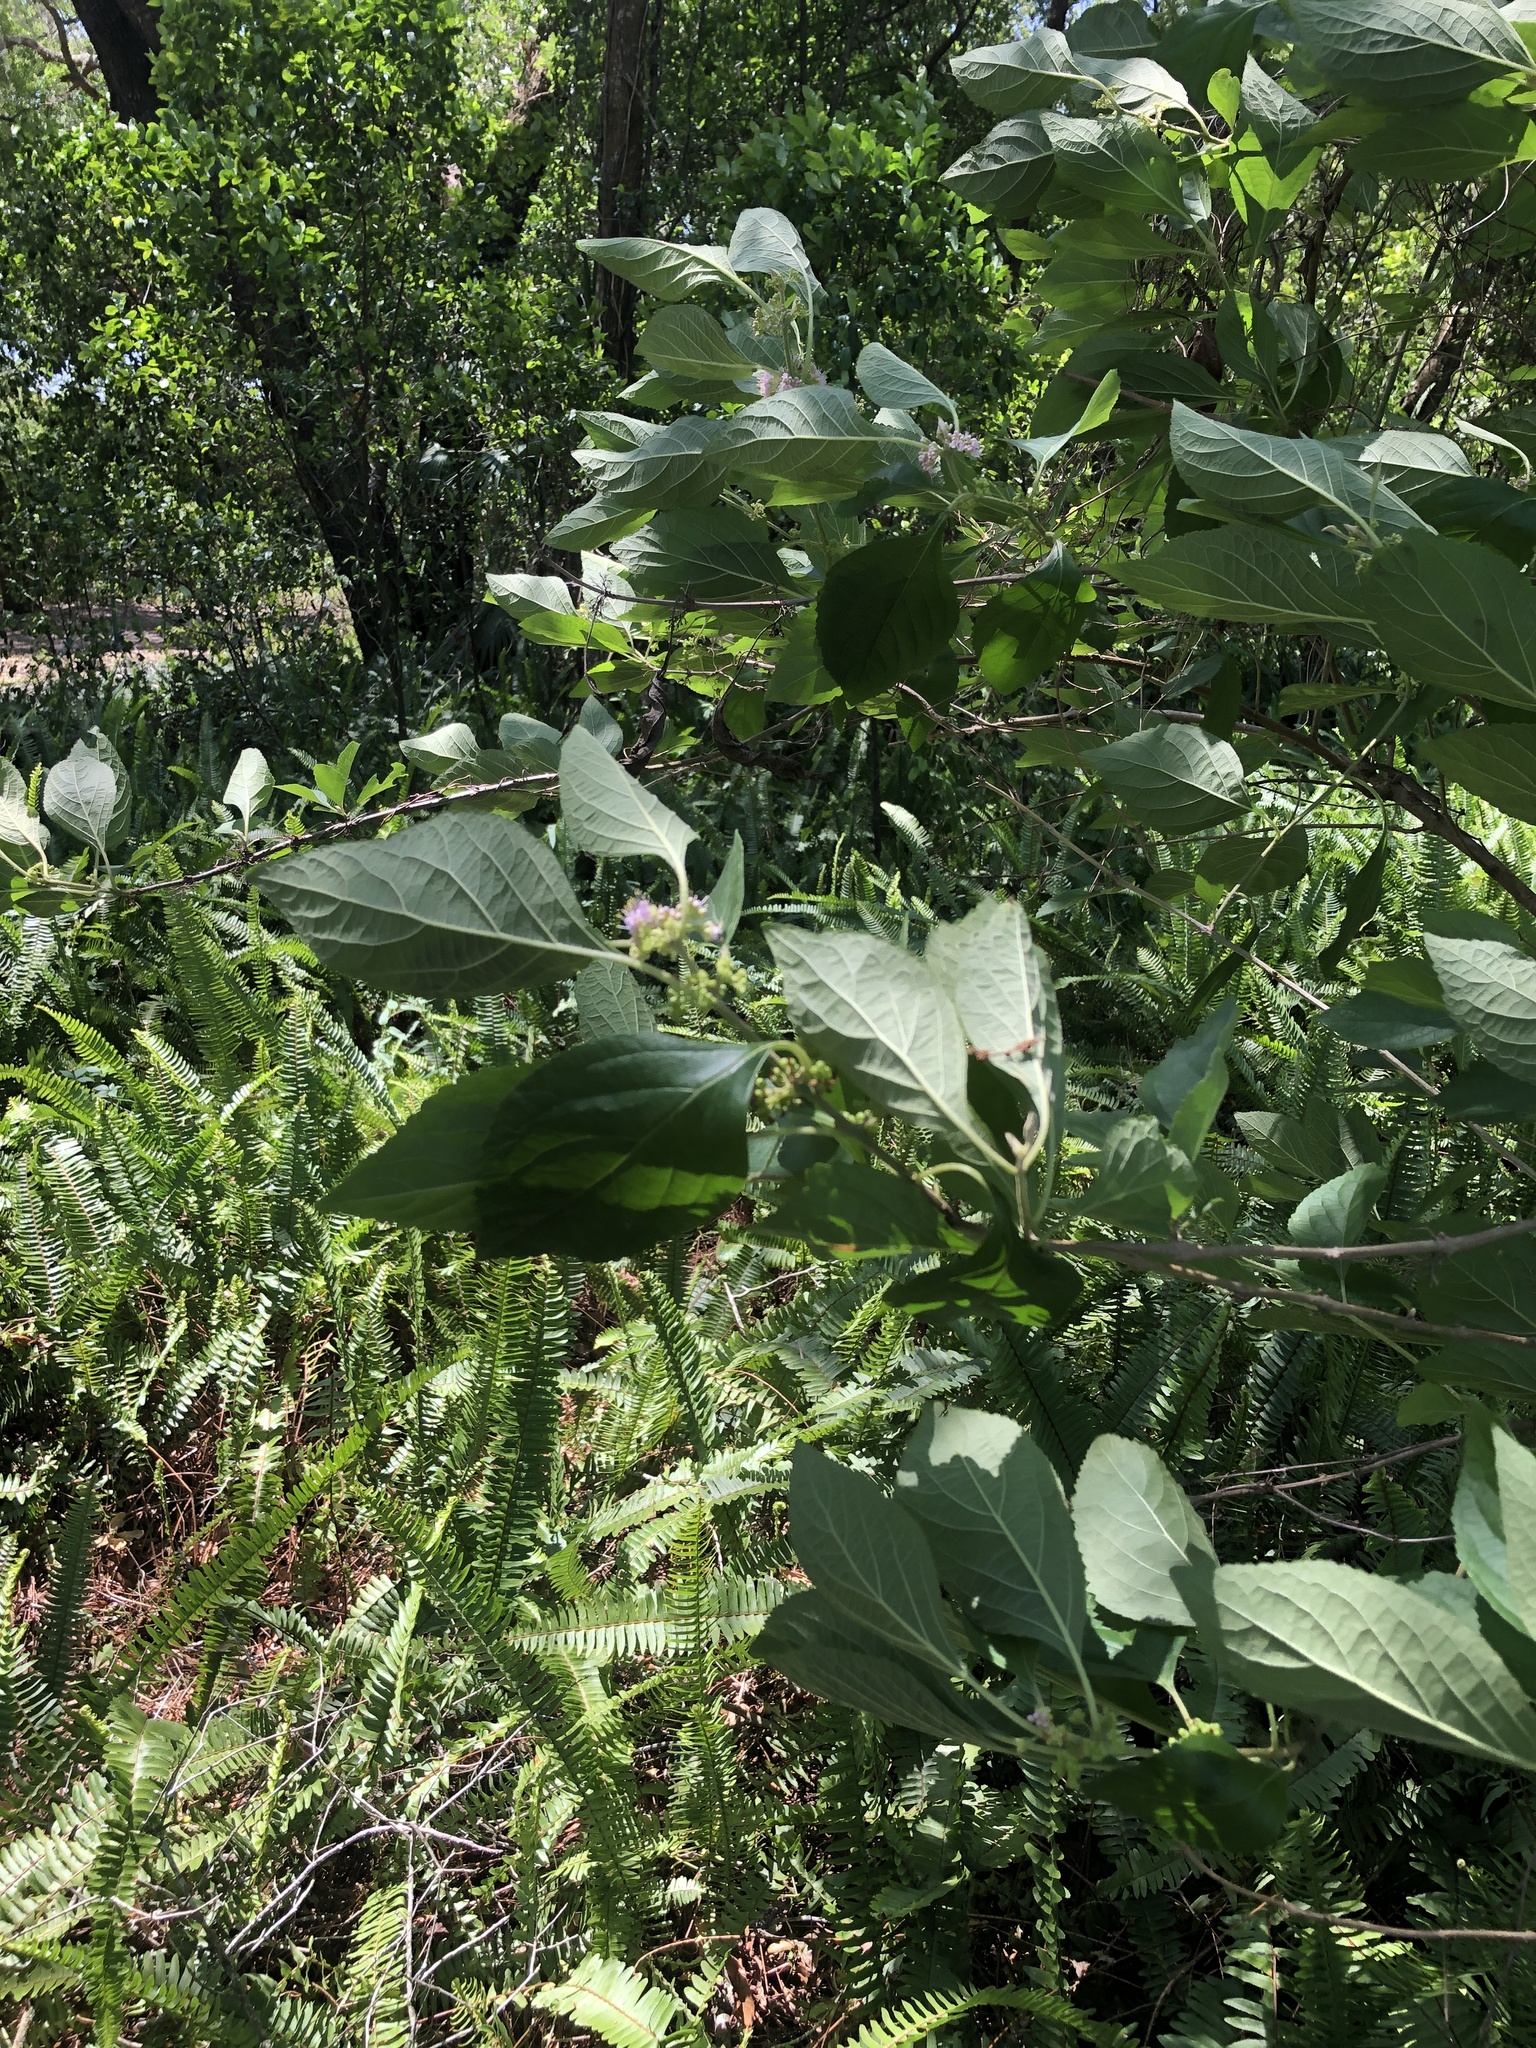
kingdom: Plantae
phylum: Tracheophyta
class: Magnoliopsida
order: Lamiales
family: Lamiaceae
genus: Callicarpa
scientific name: Callicarpa americana
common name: American beautyberry
